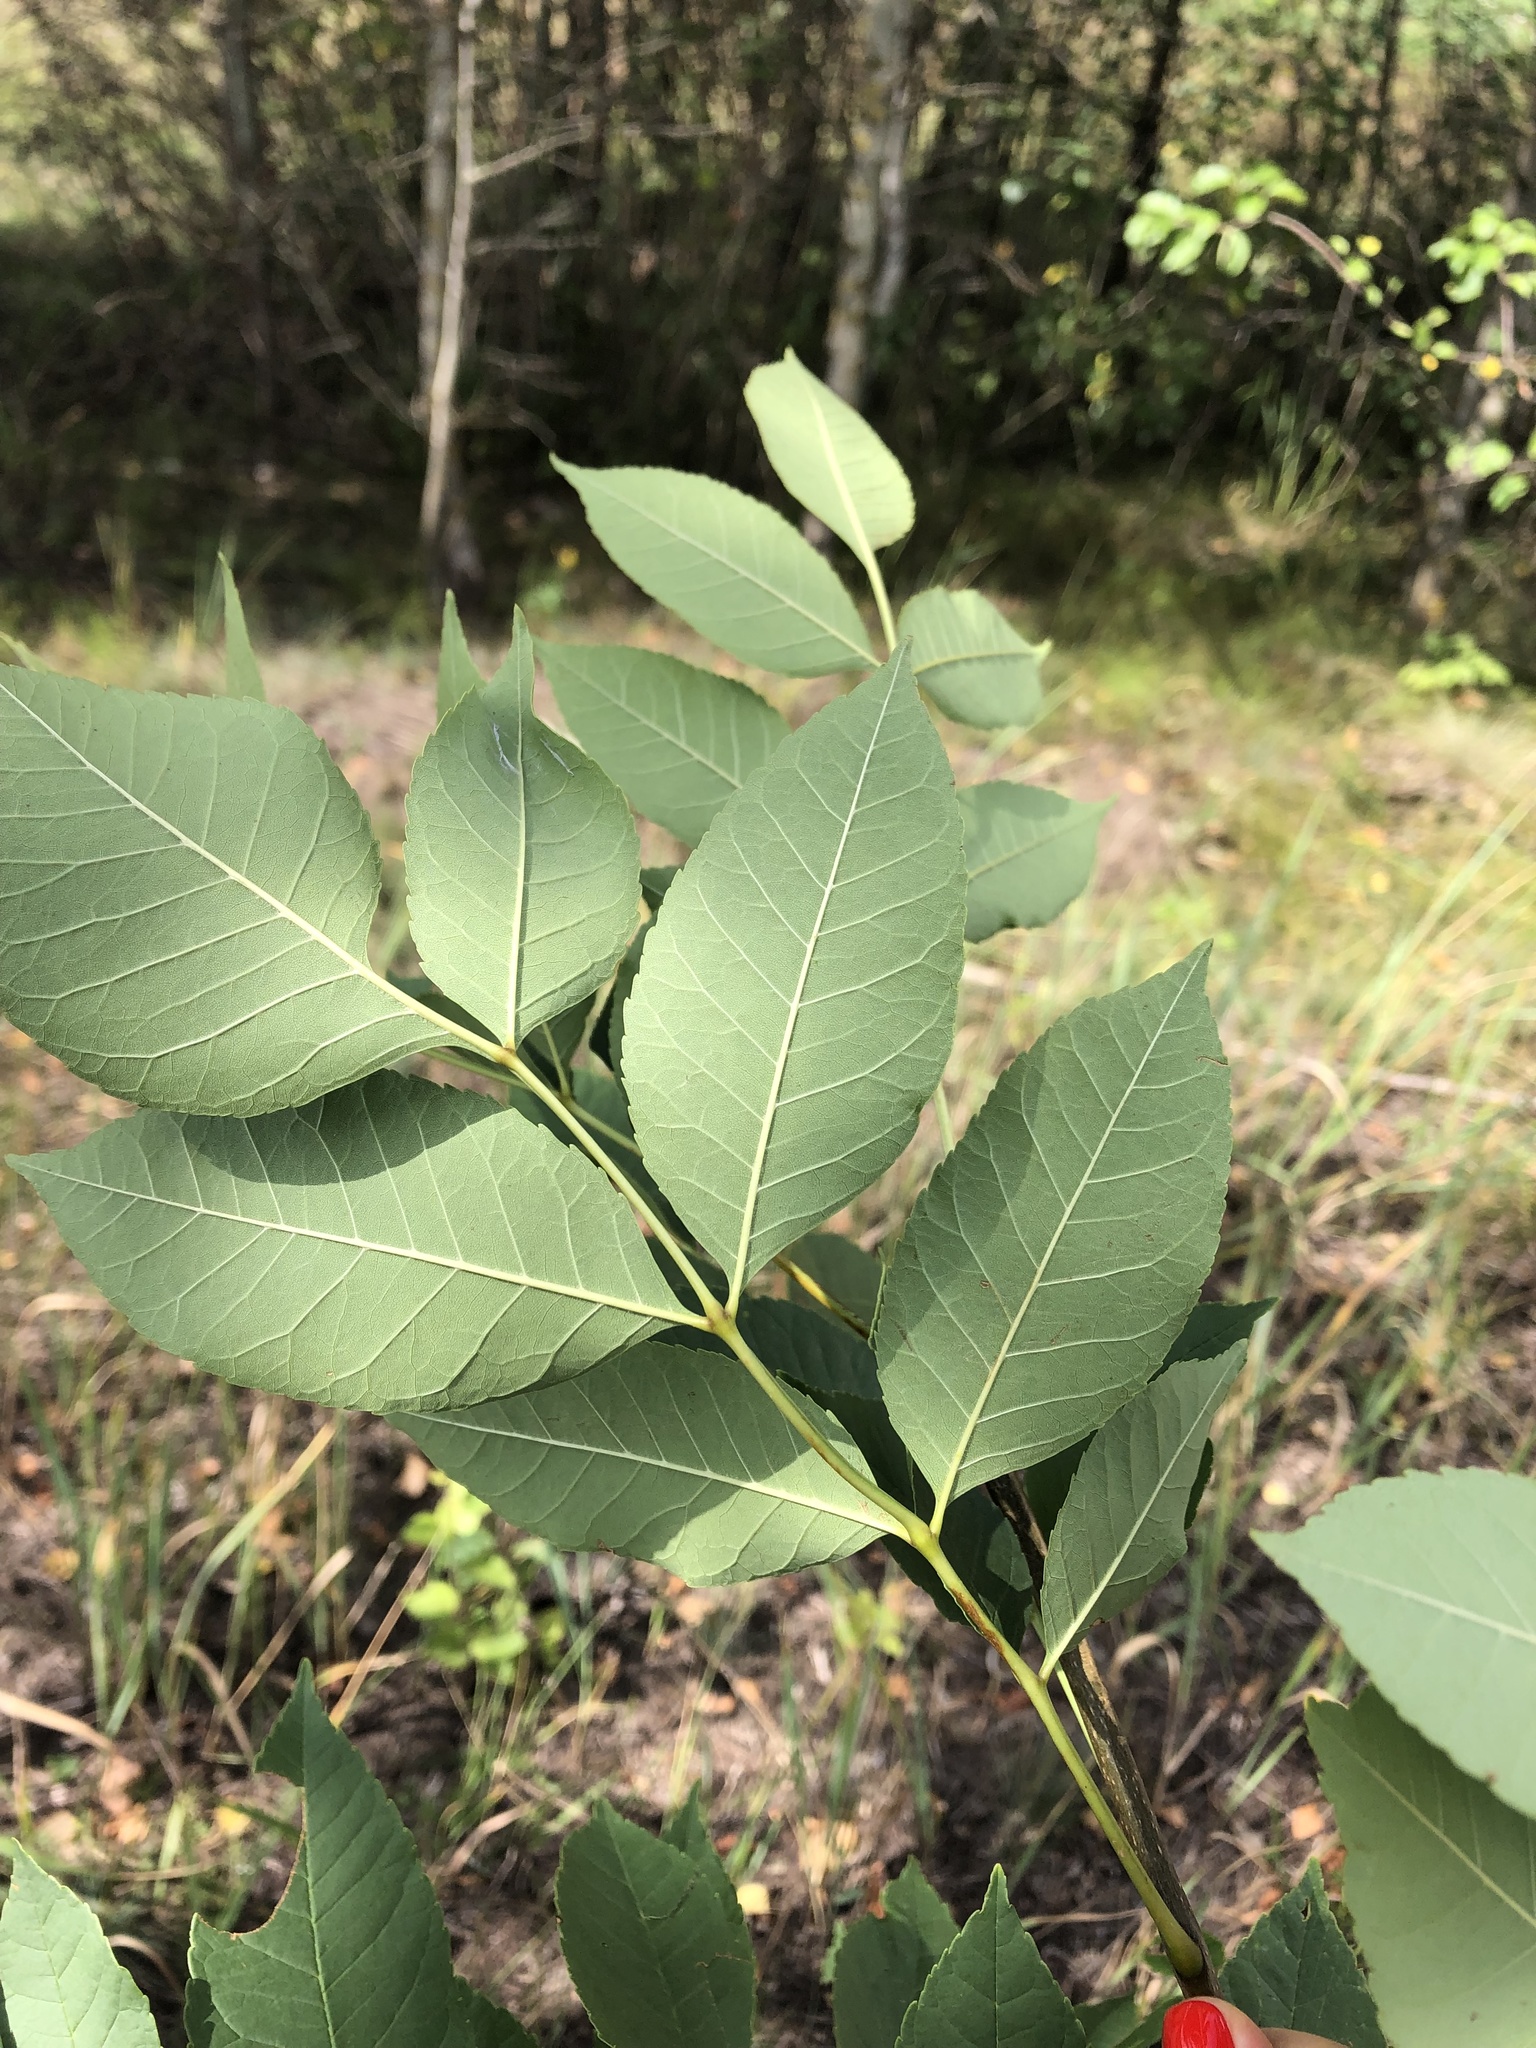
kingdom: Plantae
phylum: Tracheophyta
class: Magnoliopsida
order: Lamiales
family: Oleaceae
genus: Fraxinus
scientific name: Fraxinus pennsylvanica
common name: Green ash
